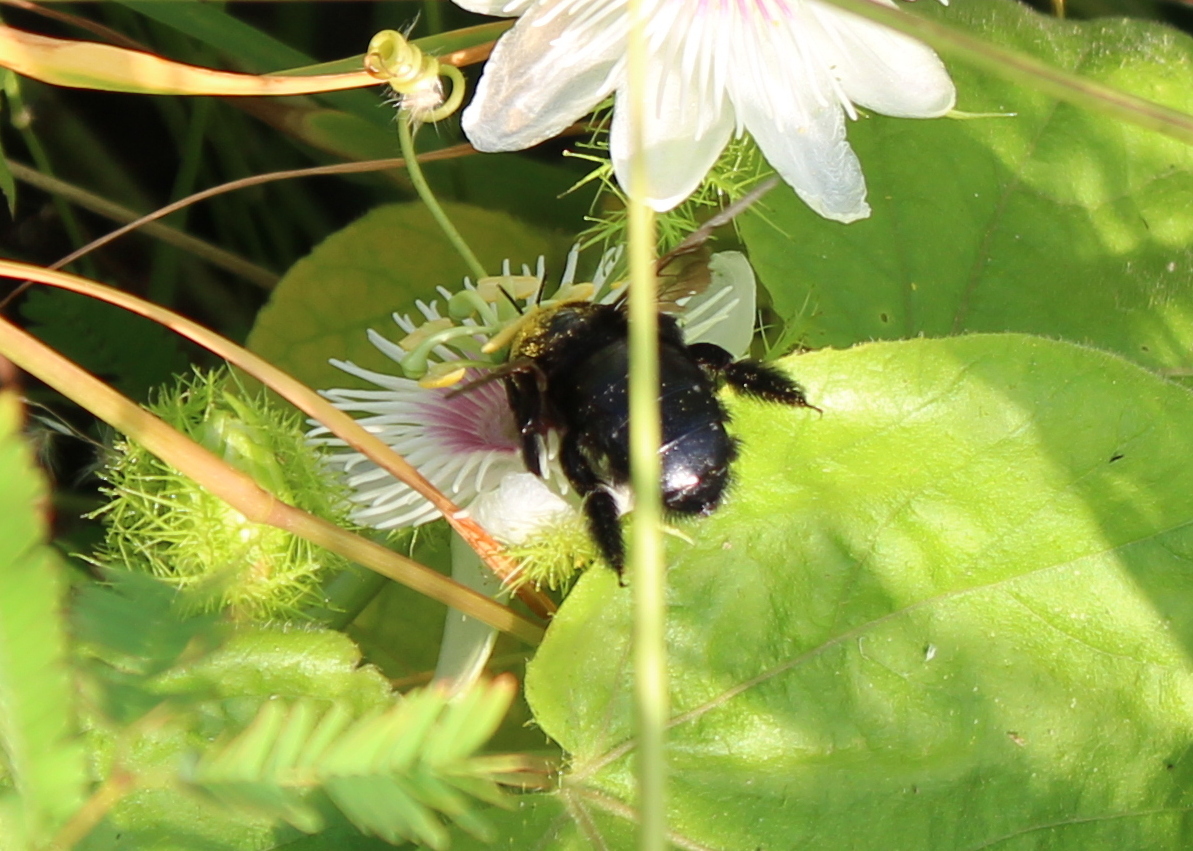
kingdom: Animalia
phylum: Arthropoda
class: Insecta
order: Hymenoptera
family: Apidae
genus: Xylocopa
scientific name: Xylocopa sonorina
